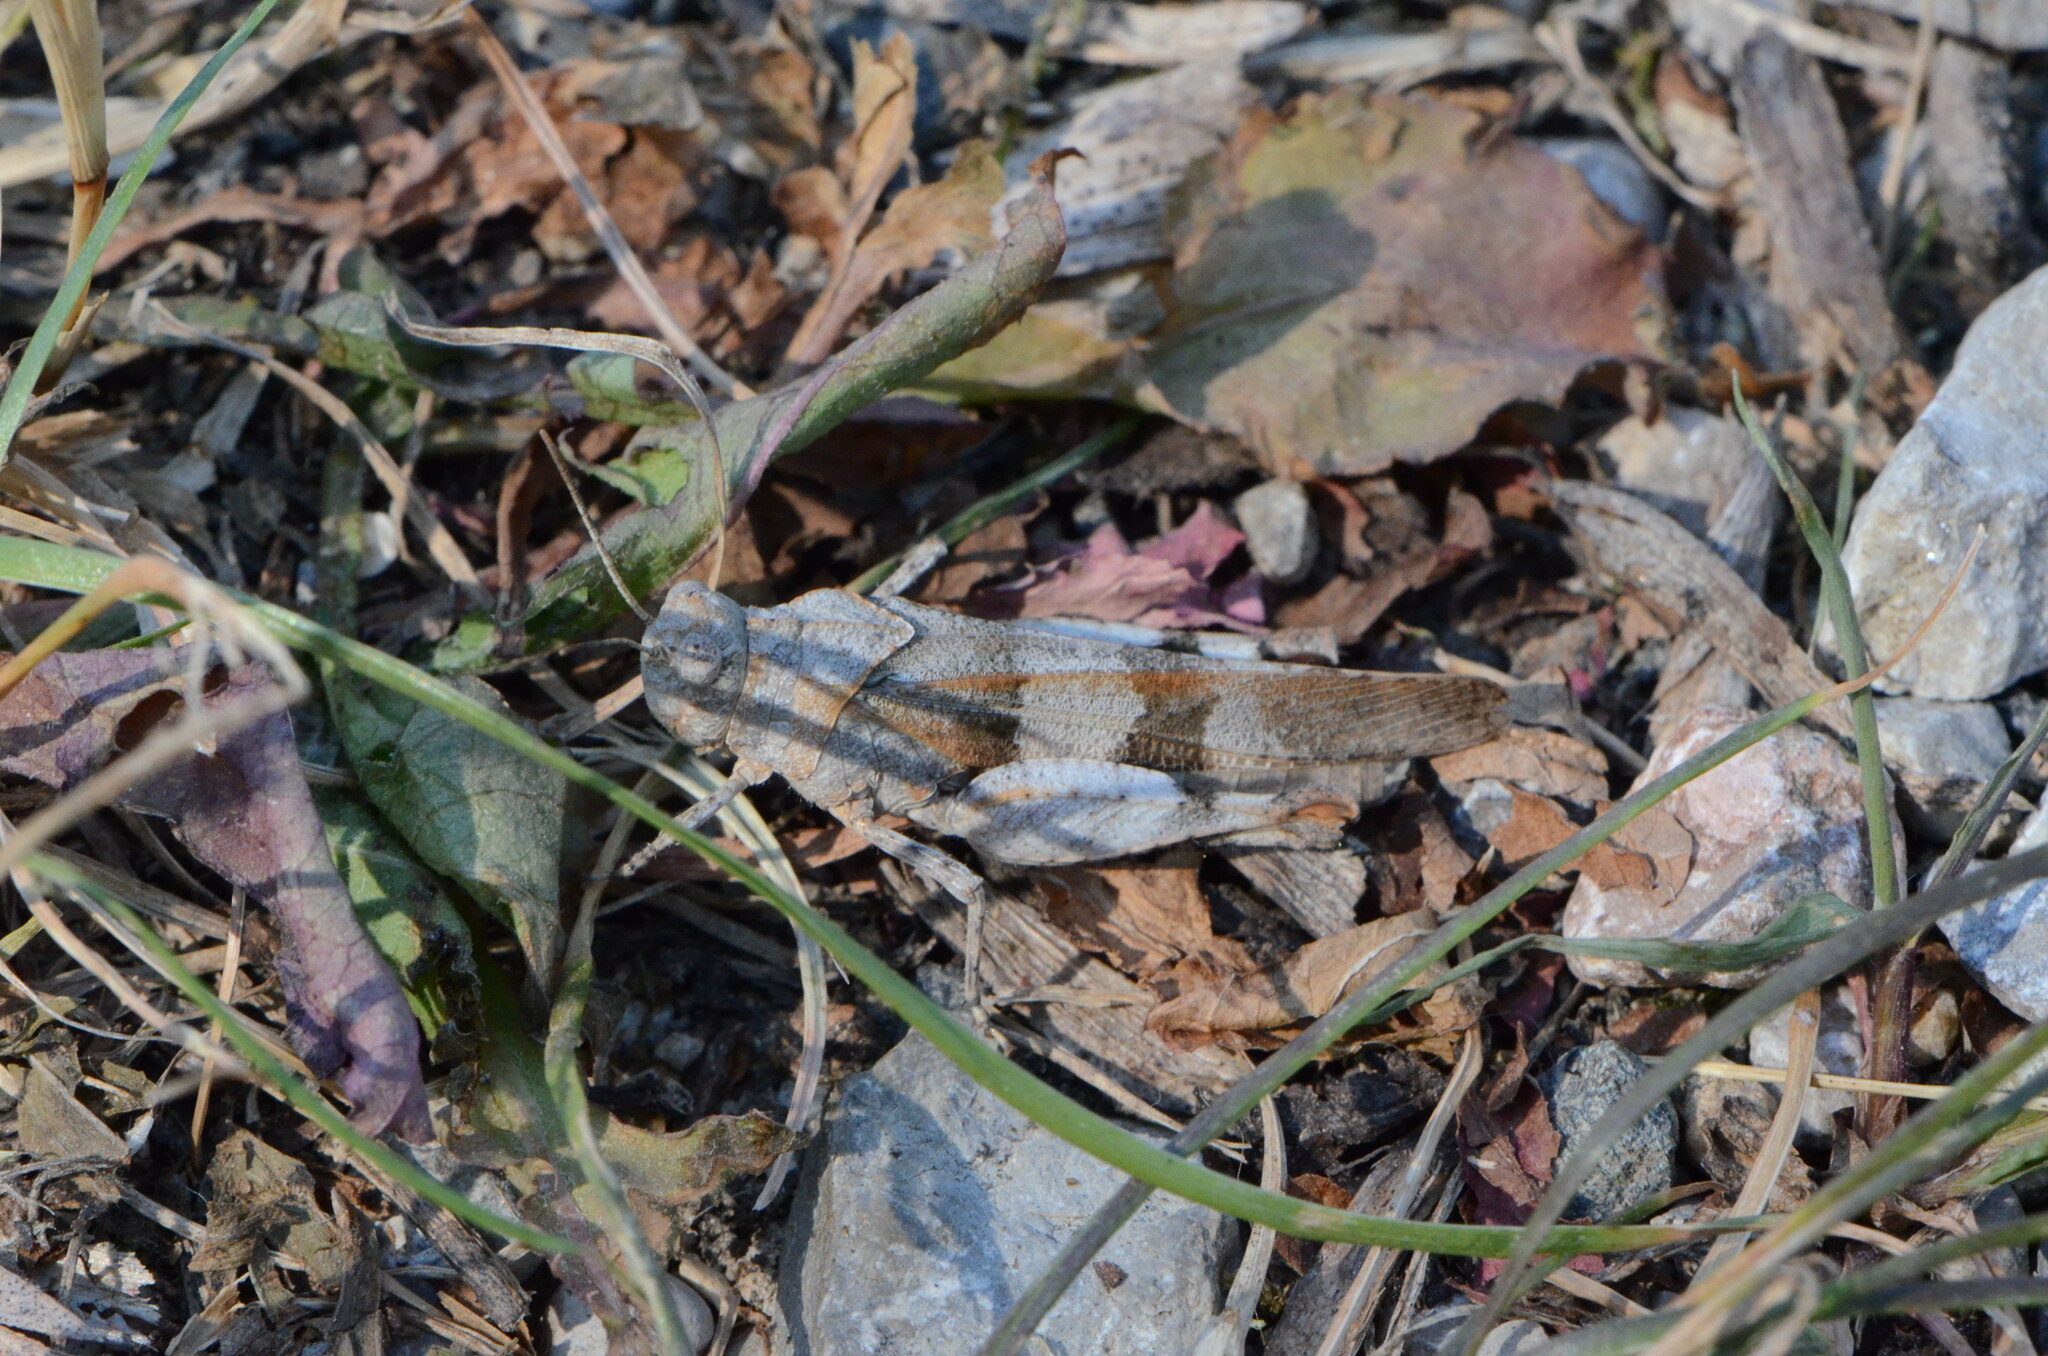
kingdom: Animalia
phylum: Arthropoda
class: Insecta
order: Orthoptera
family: Acrididae
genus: Oedipoda
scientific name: Oedipoda caerulescens
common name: Blue-winged grasshopper
